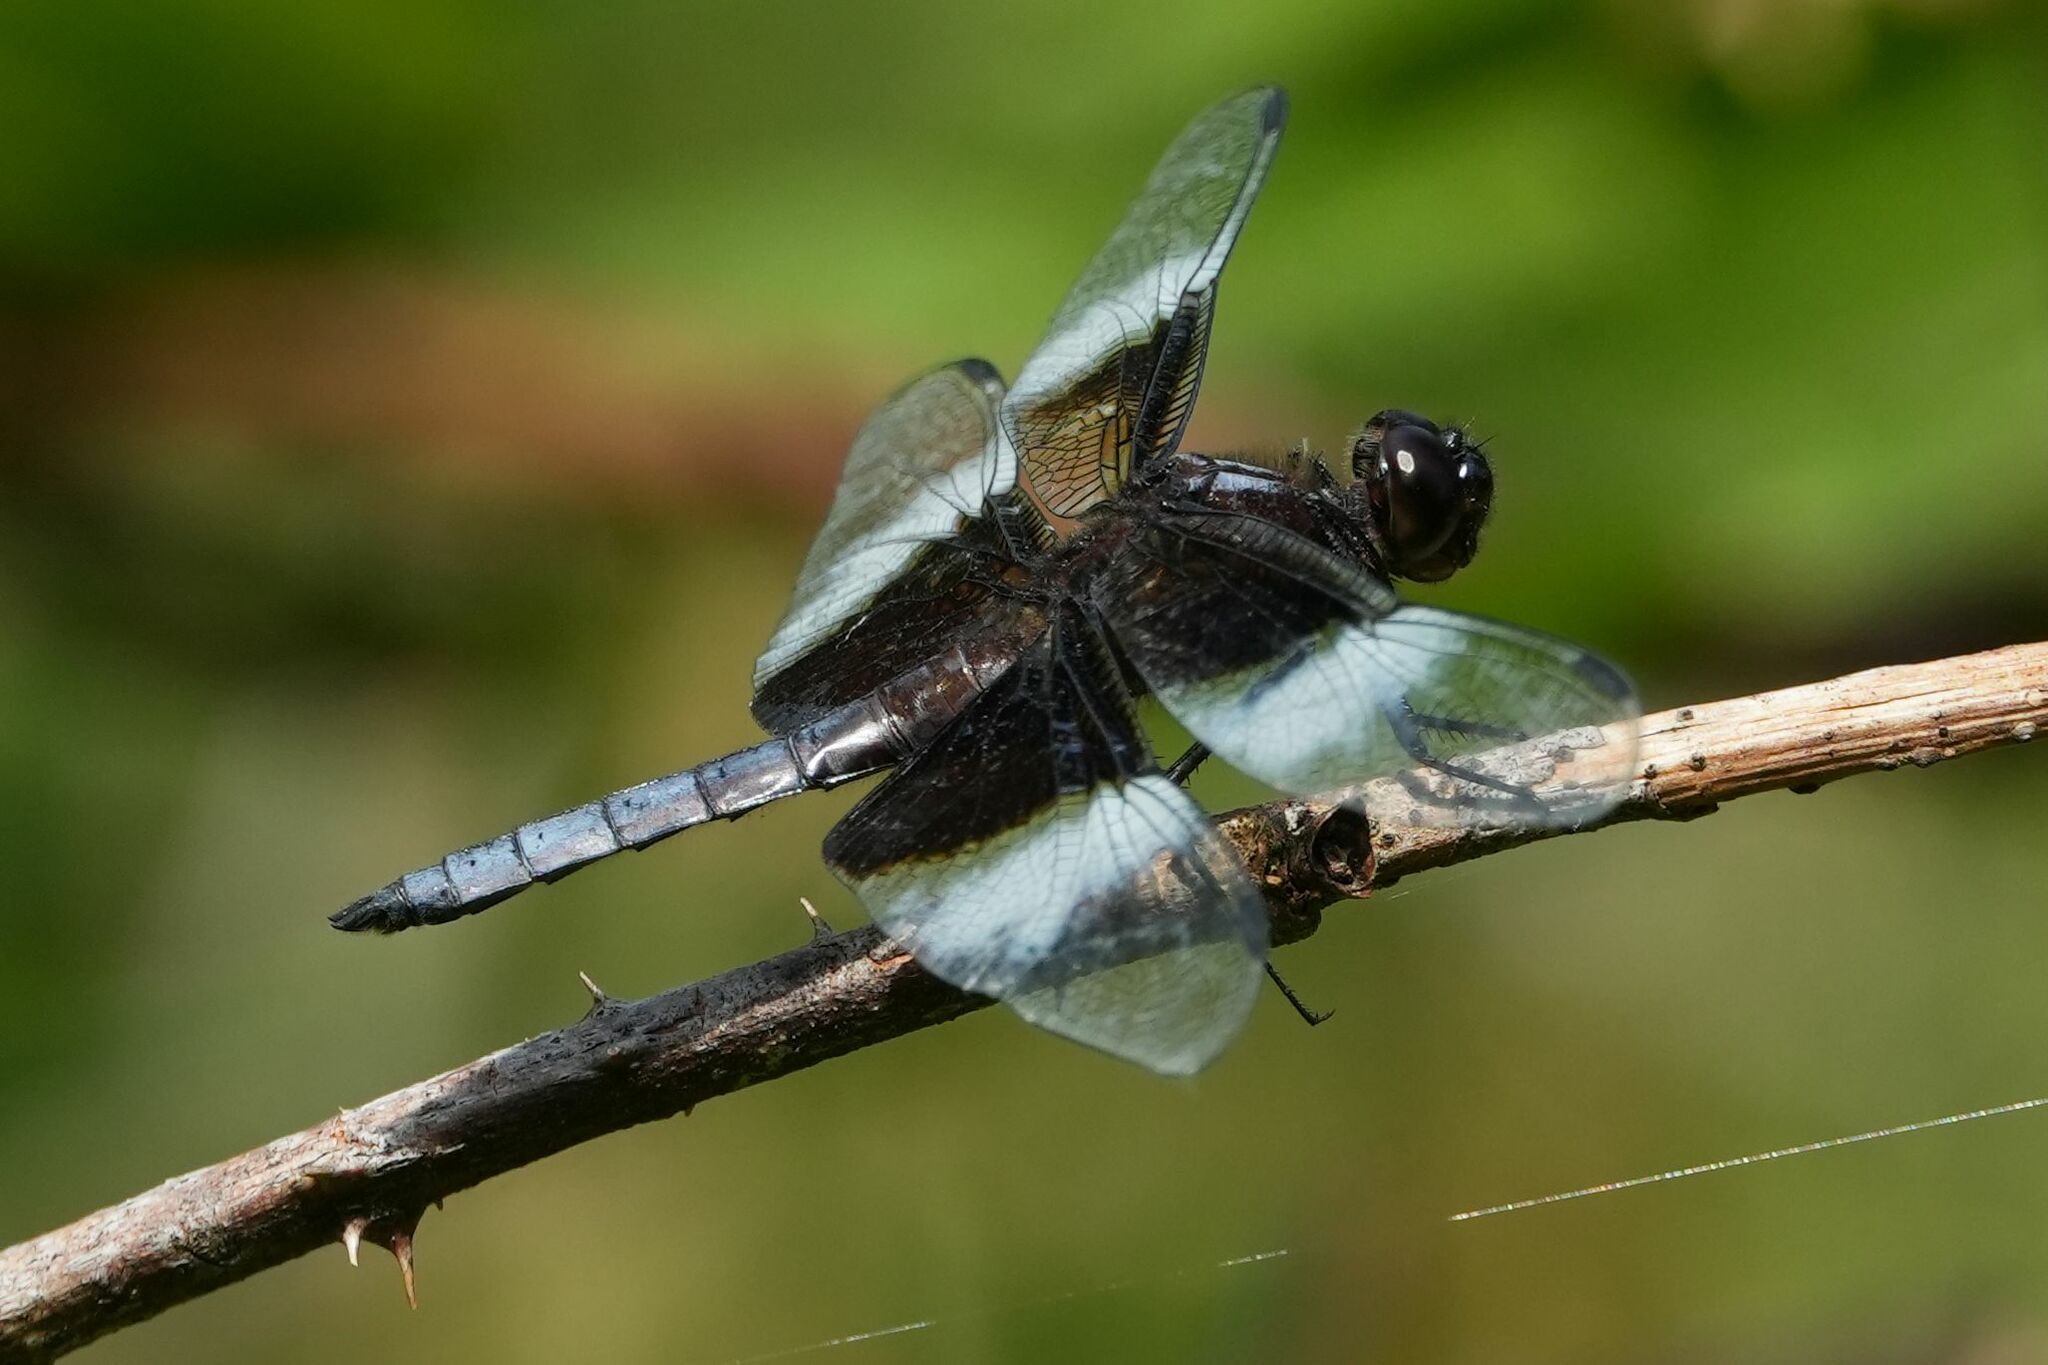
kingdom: Animalia
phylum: Arthropoda
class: Insecta
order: Odonata
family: Libellulidae
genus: Libellula
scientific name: Libellula luctuosa
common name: Widow skimmer
